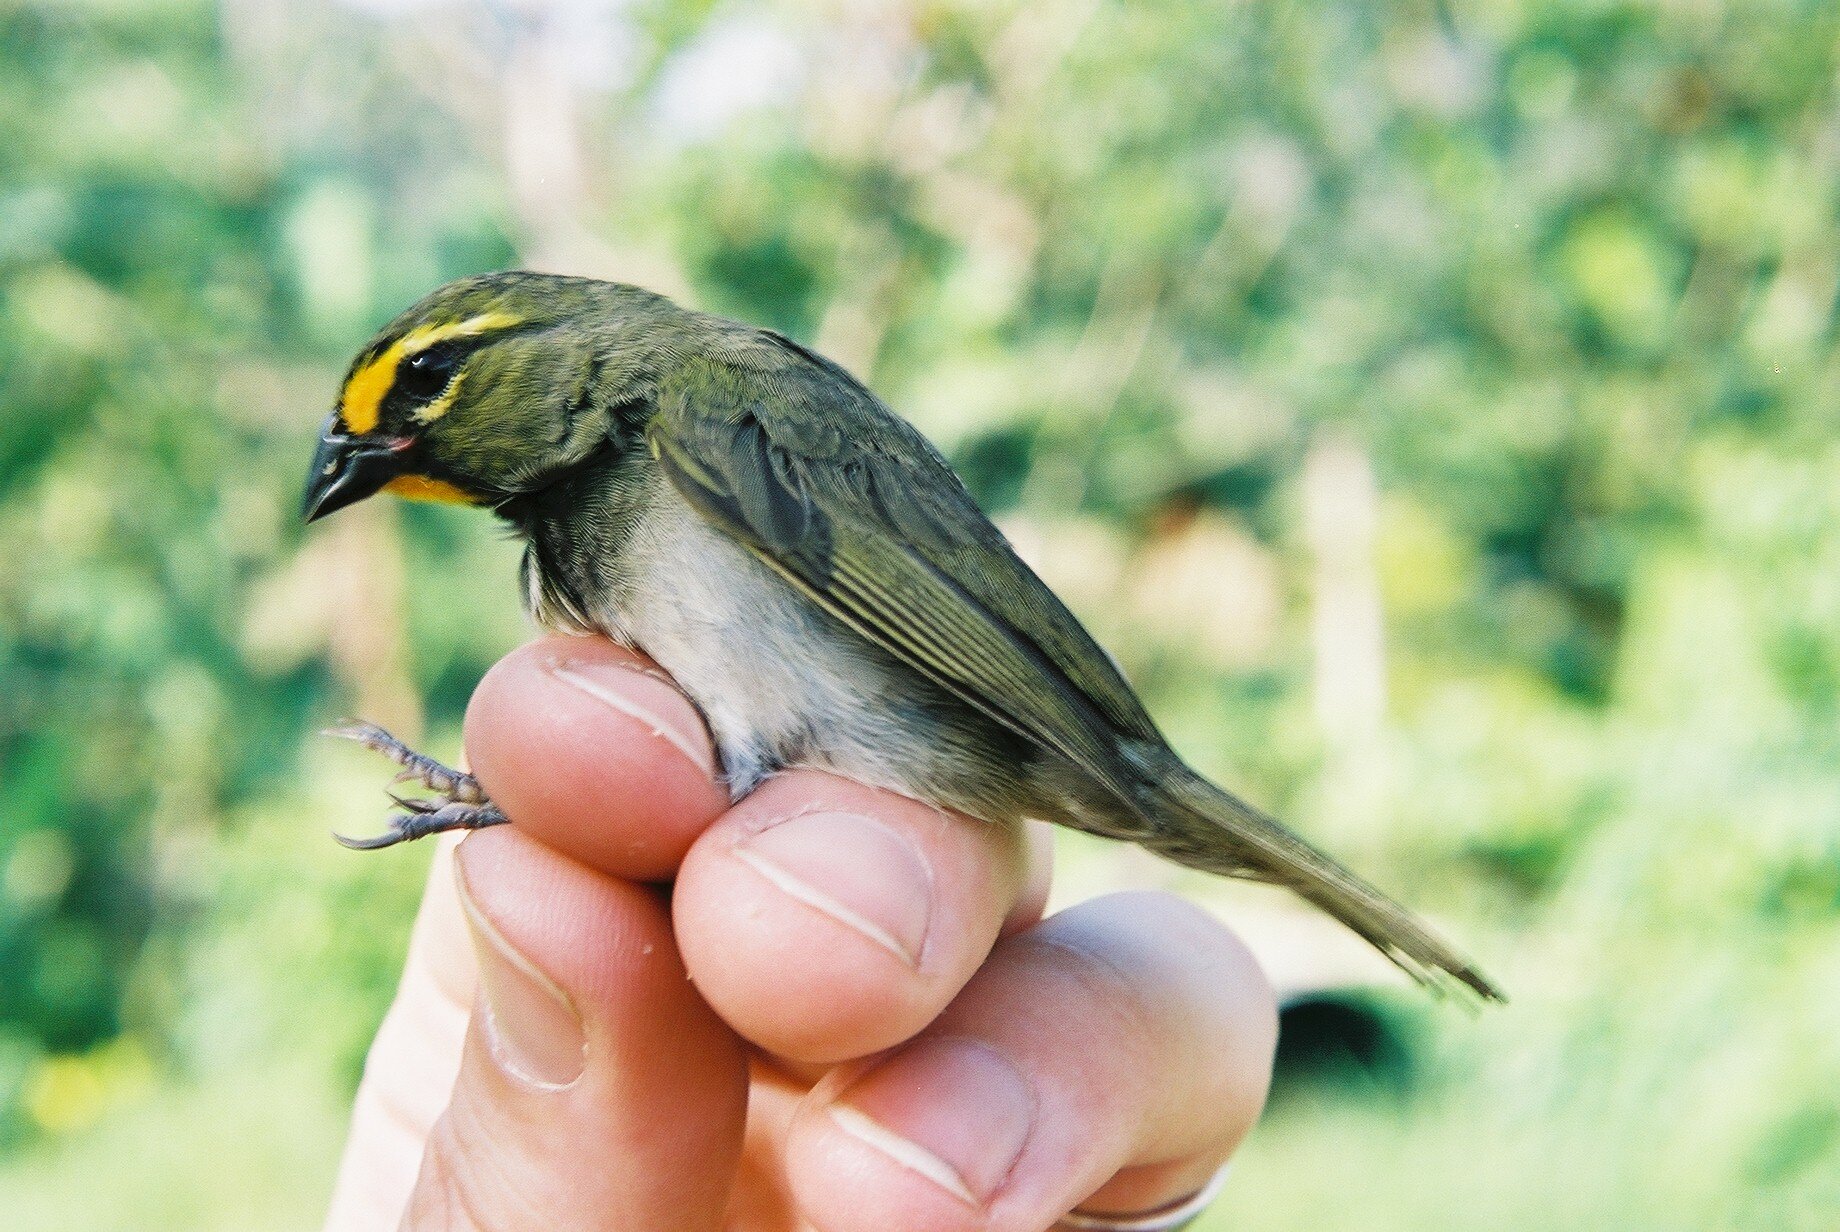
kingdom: Animalia
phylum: Chordata
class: Aves
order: Passeriformes
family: Thraupidae
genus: Tiaris
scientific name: Tiaris olivaceus
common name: Yellow-faced grassquit
